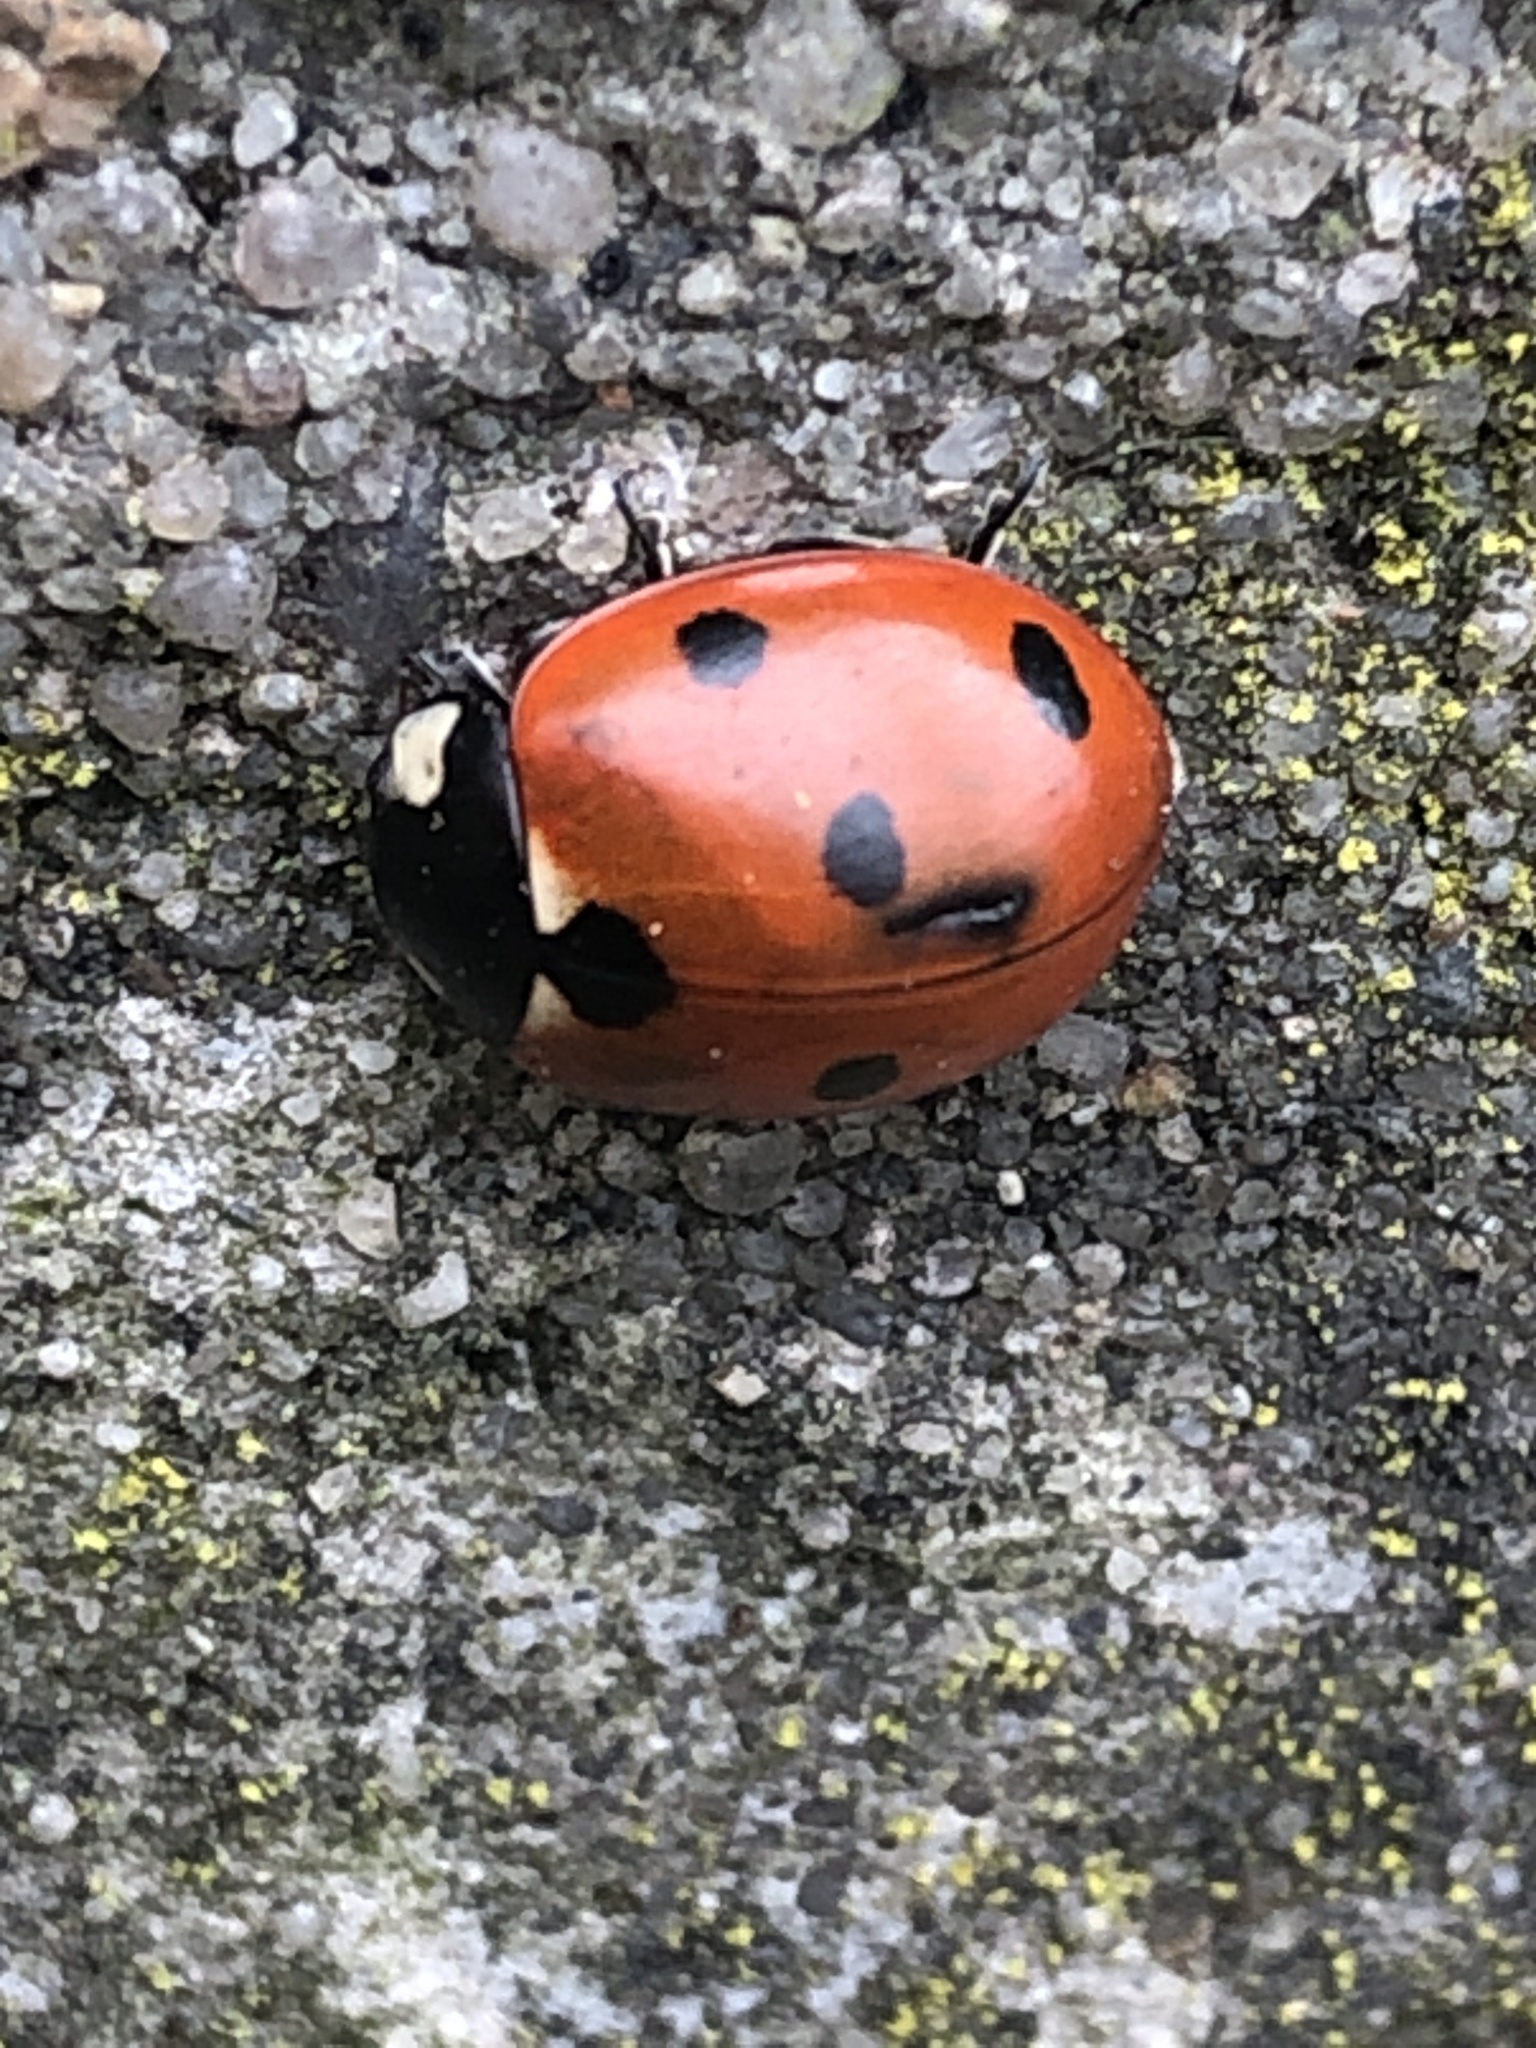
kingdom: Animalia
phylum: Arthropoda
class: Insecta
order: Coleoptera
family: Coccinellidae
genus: Coccinella
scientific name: Coccinella septempunctata
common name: Sevenspotted lady beetle
